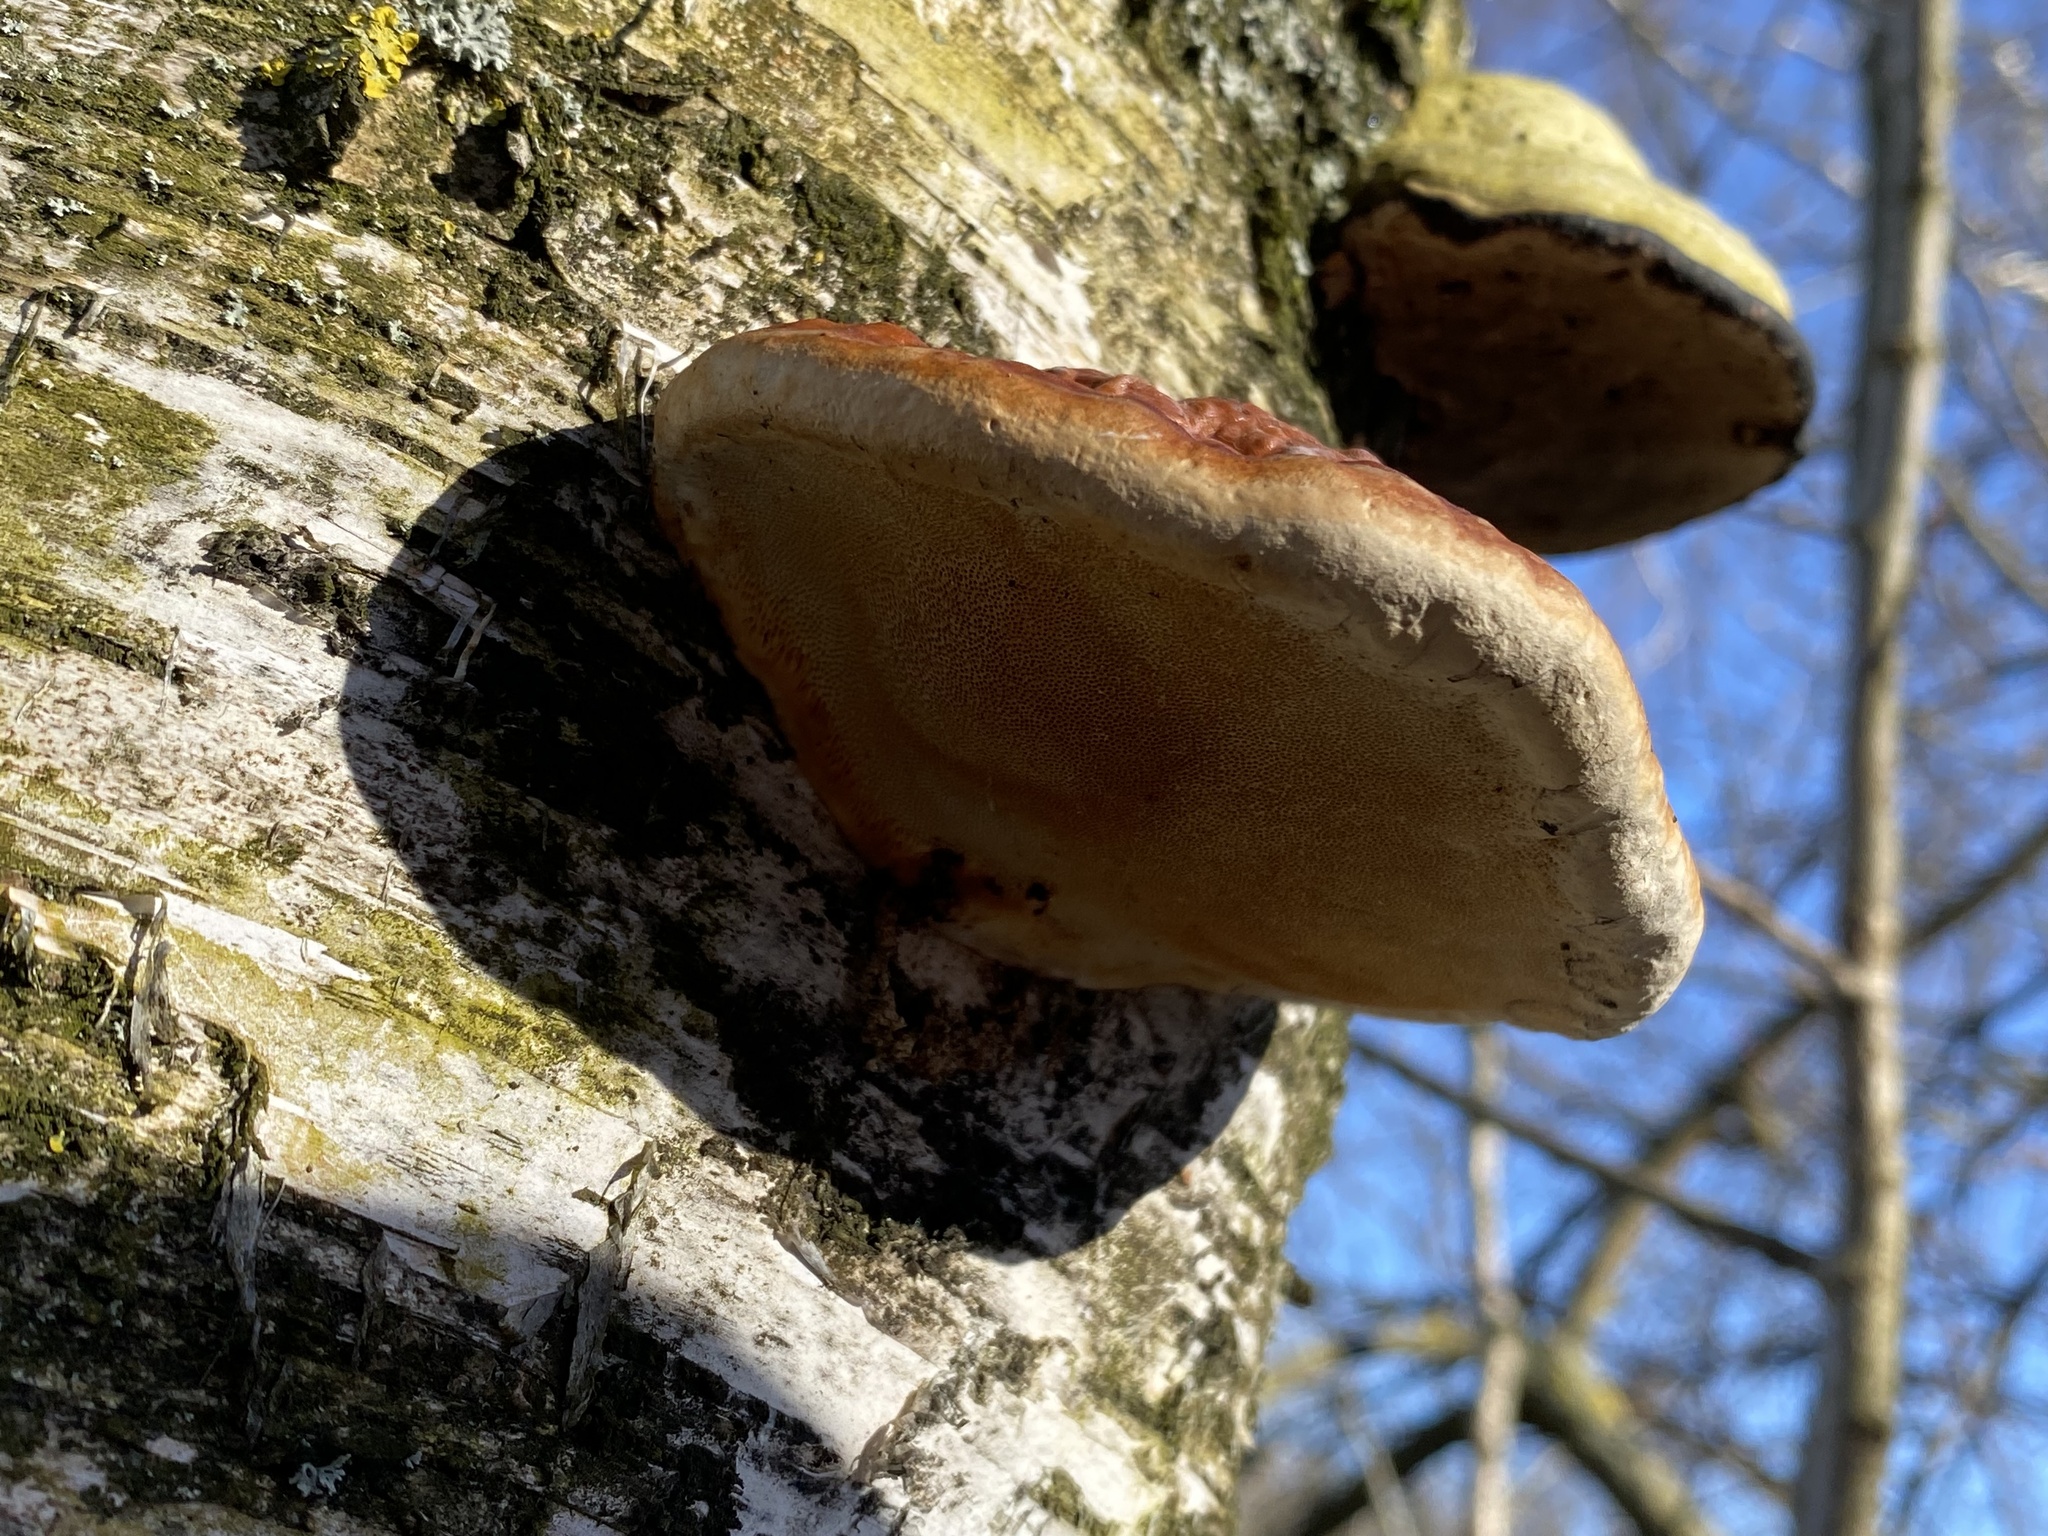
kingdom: Fungi
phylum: Basidiomycota
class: Agaricomycetes
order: Polyporales
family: Fomitopsidaceae
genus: Fomitopsis
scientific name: Fomitopsis pinicola
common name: Red-belted bracket
